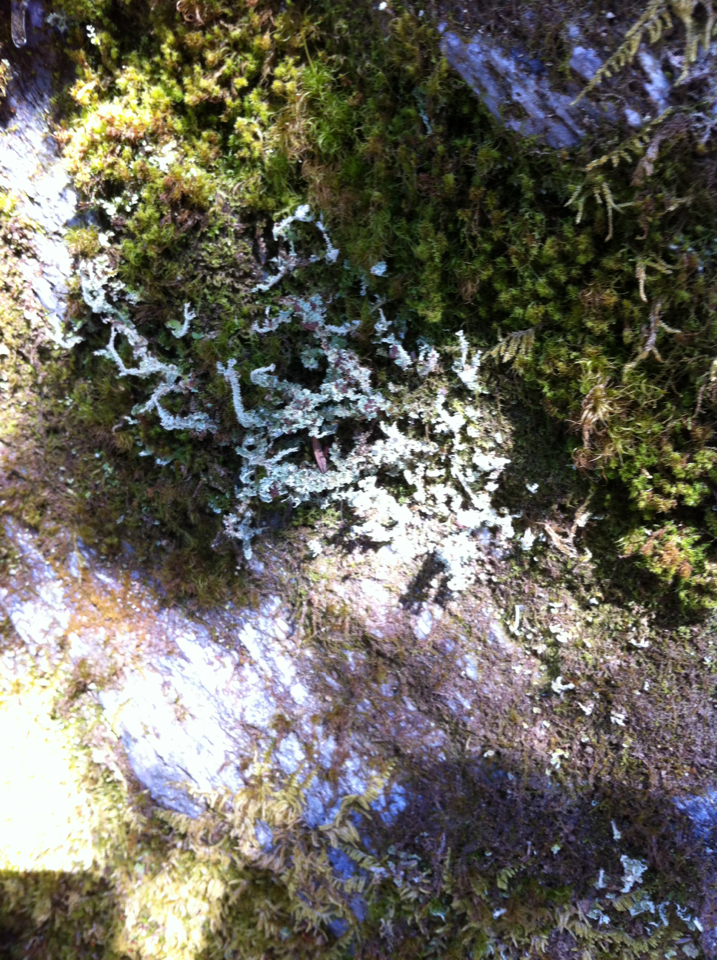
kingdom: Fungi
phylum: Ascomycota
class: Lecanoromycetes
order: Lecanorales
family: Cladoniaceae
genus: Cladonia
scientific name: Cladonia squamosa
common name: Dragon horn
